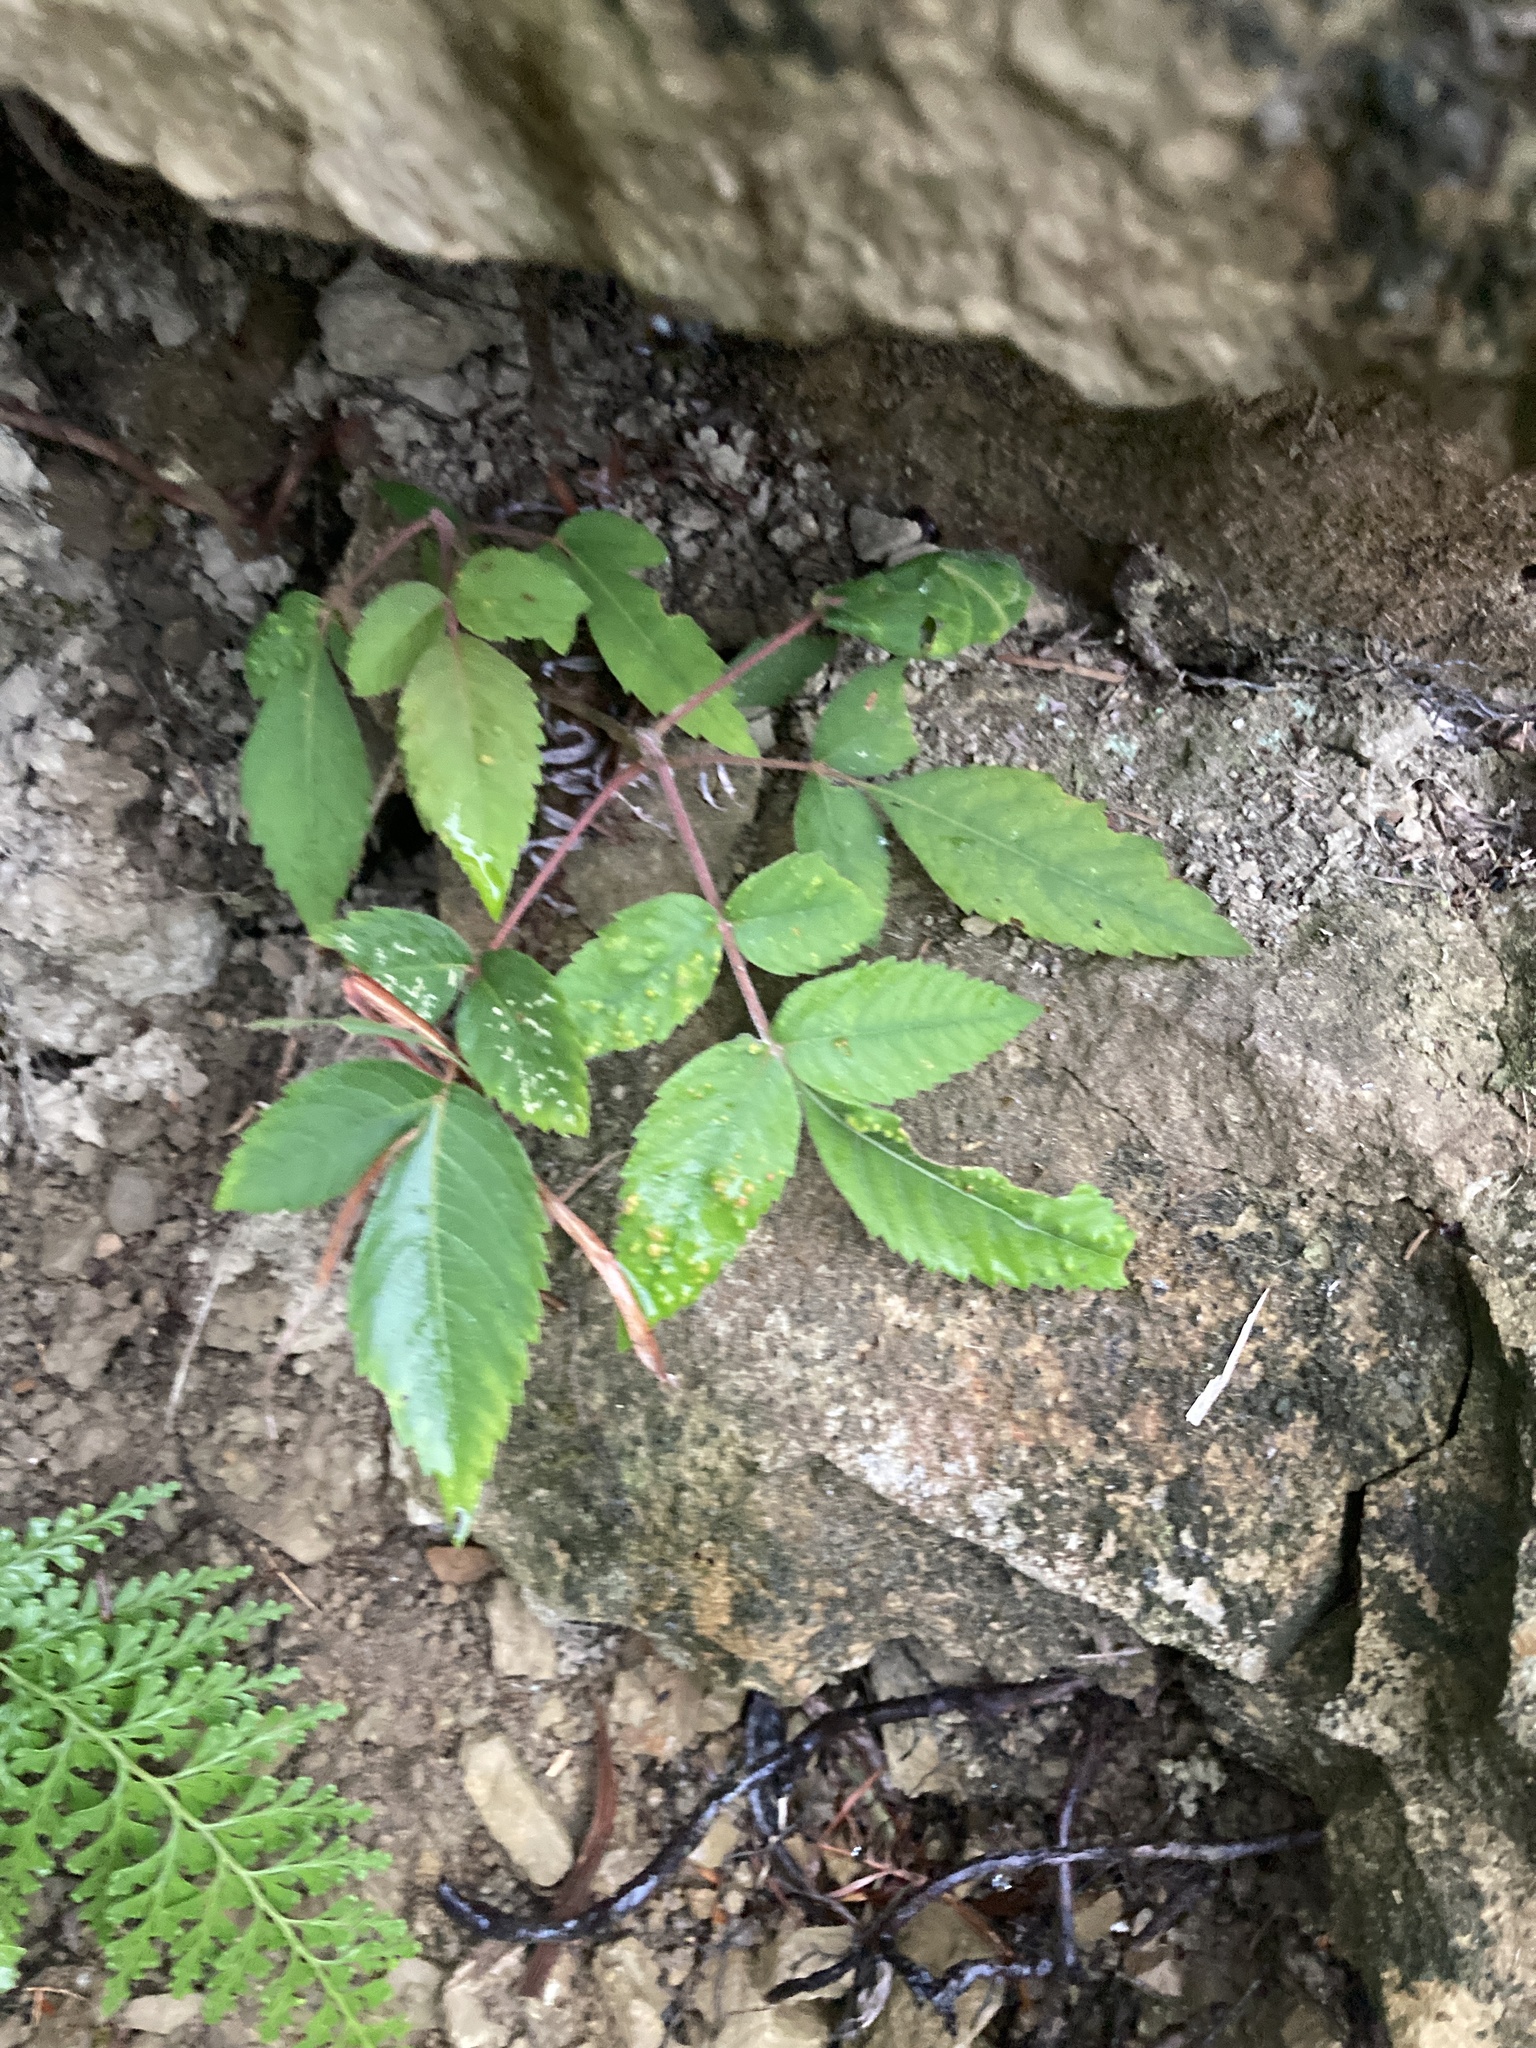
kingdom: Plantae
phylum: Tracheophyta
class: Magnoliopsida
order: Sapindales
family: Anacardiaceae
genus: Rhus
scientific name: Rhus chinensis
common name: Chinese gall
